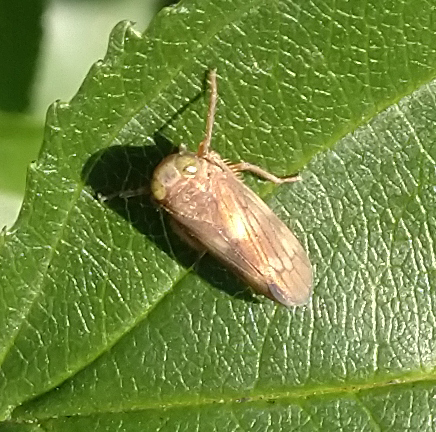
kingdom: Animalia
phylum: Arthropoda
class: Insecta
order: Hemiptera
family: Cicadellidae
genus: Jikradia
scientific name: Jikradia olitoria
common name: Coppery leafhopper
